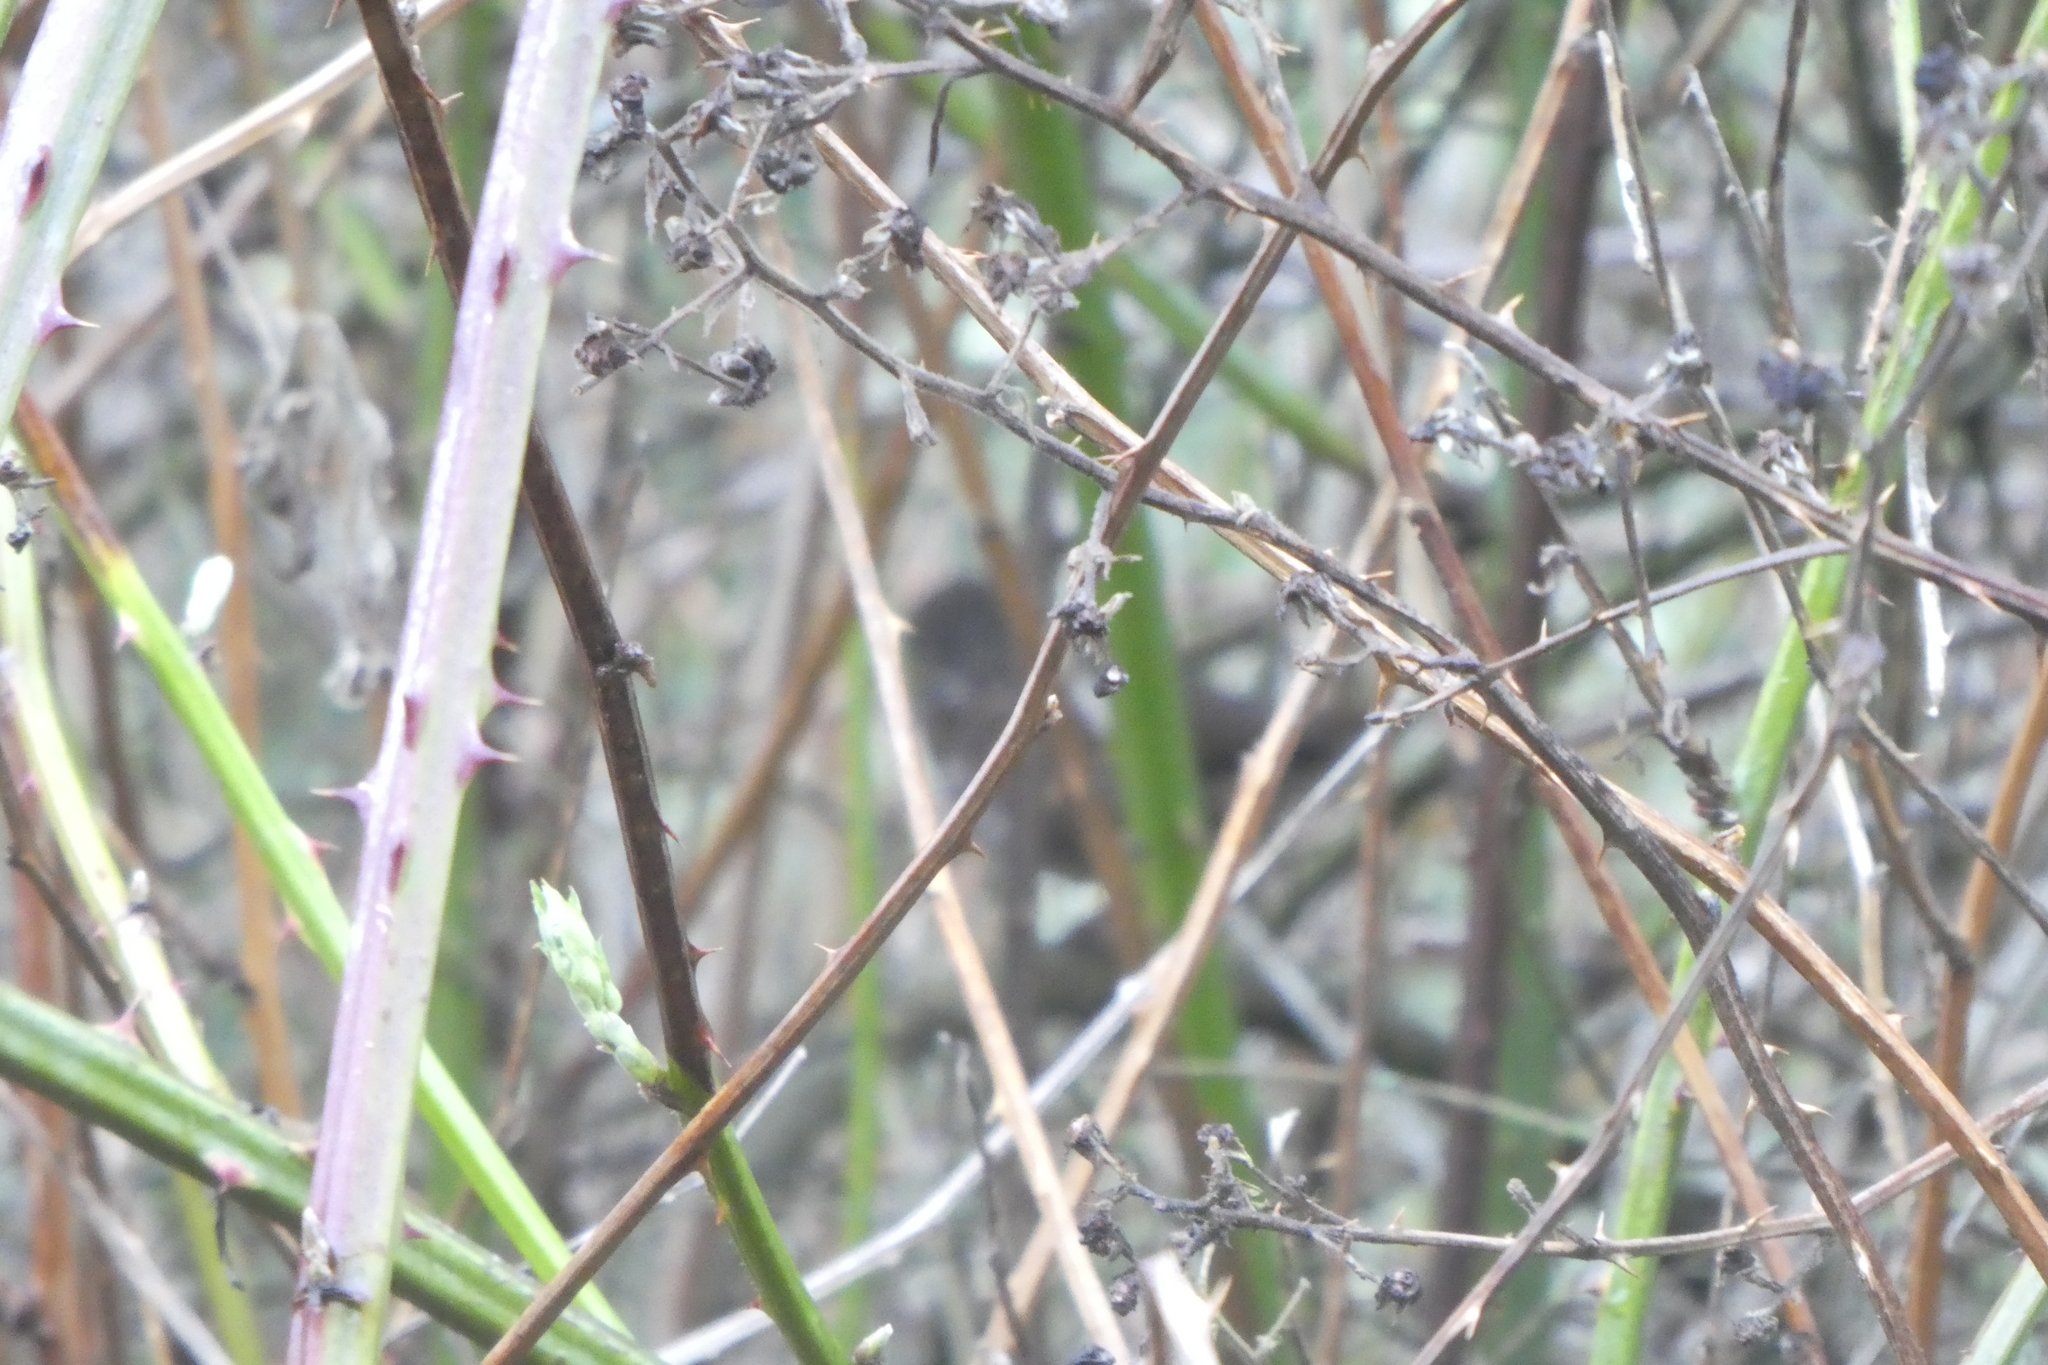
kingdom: Animalia
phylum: Chordata
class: Aves
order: Passeriformes
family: Passerellidae
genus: Passerella
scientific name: Passerella iliaca
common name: Fox sparrow
